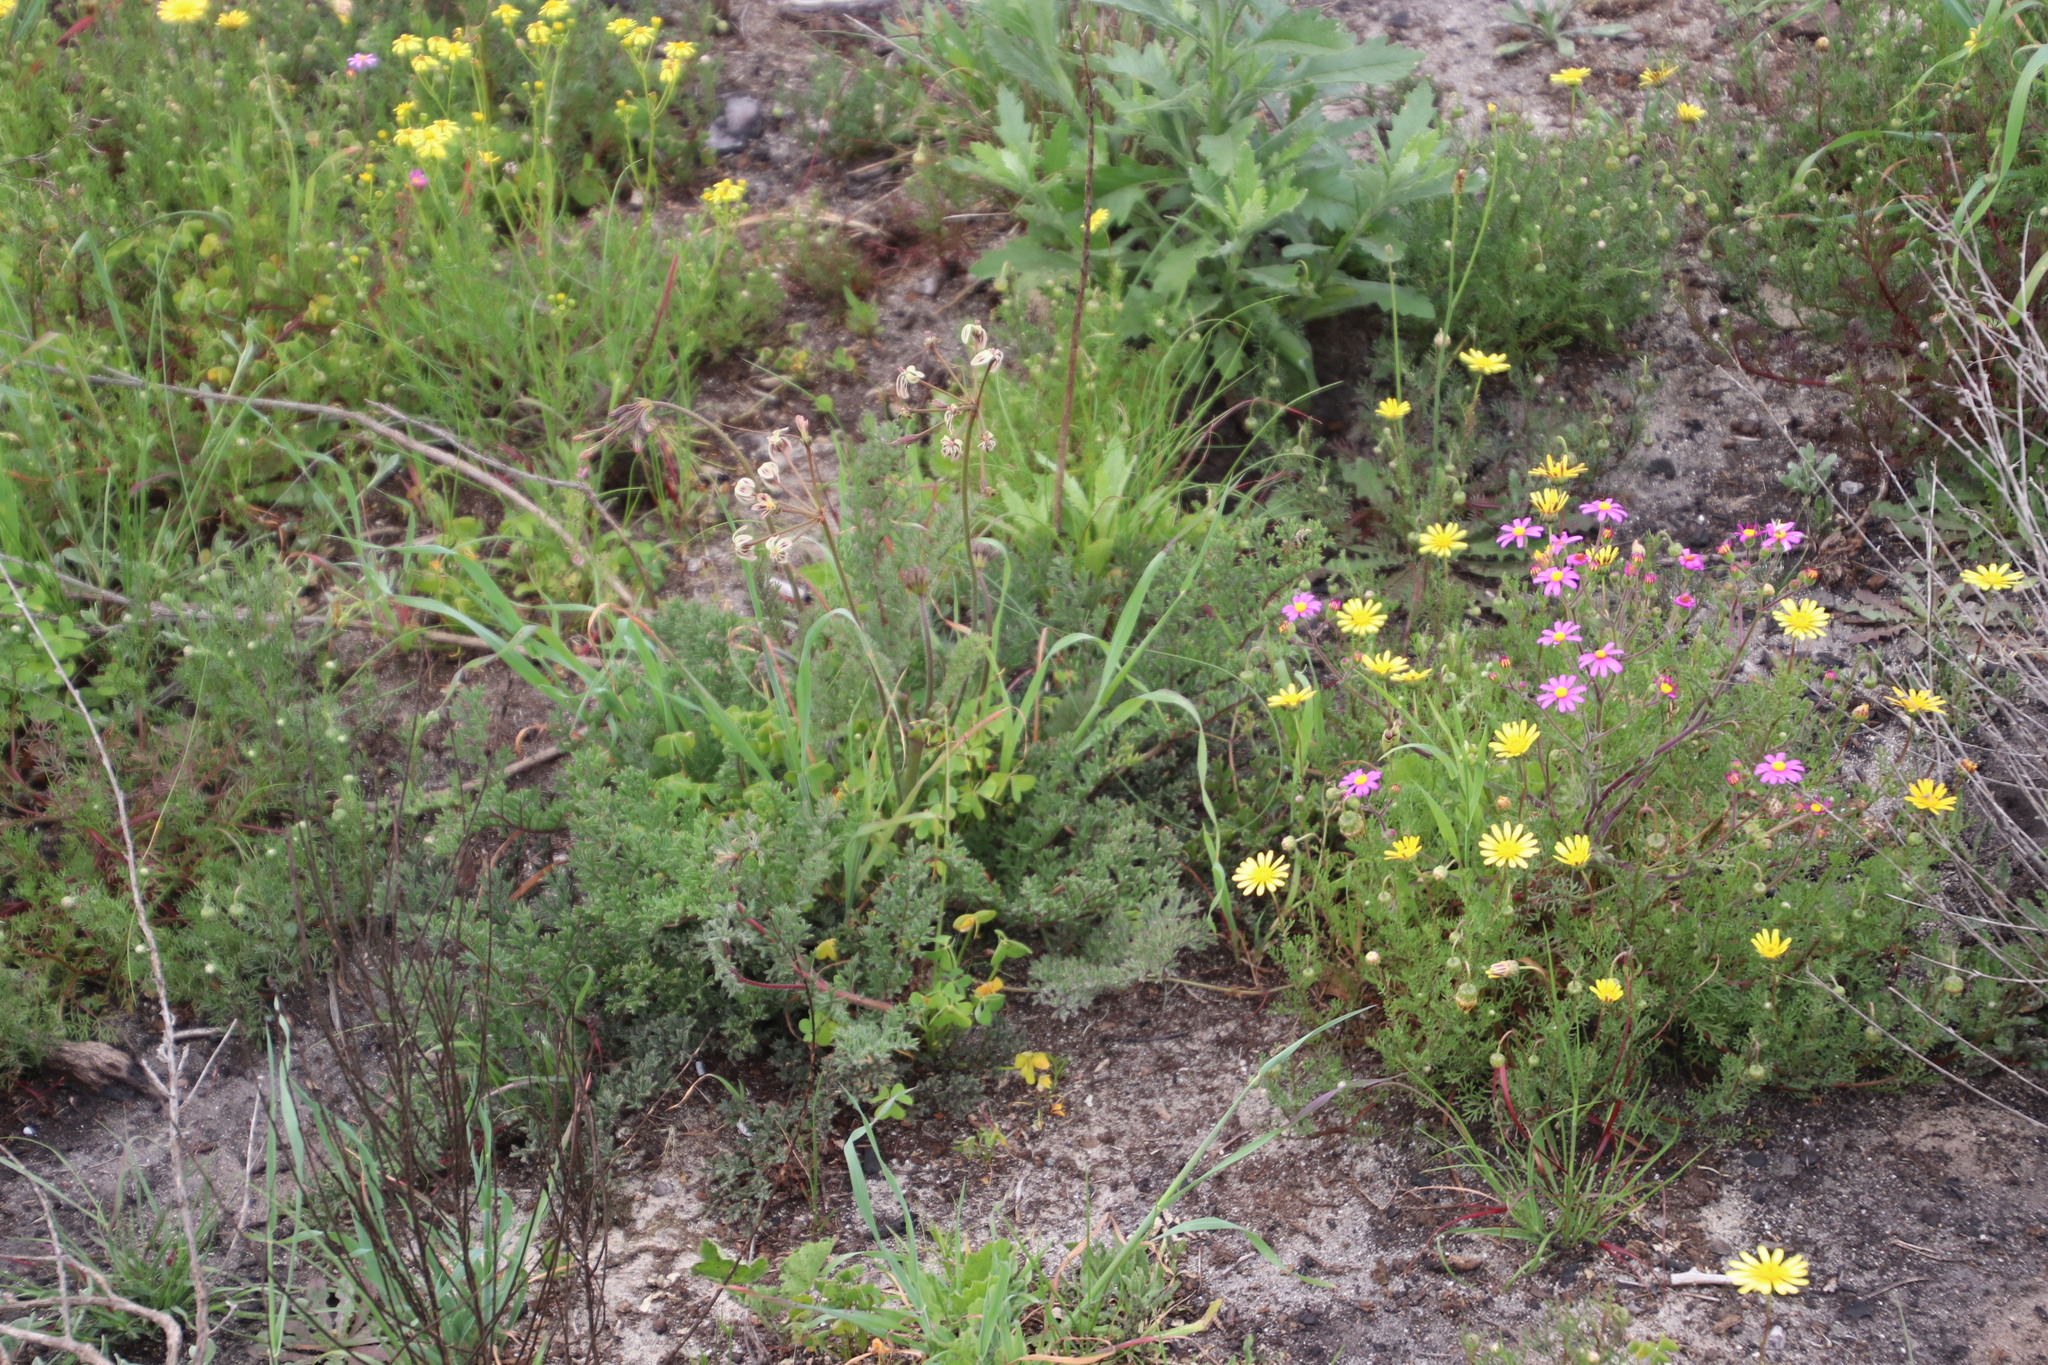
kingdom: Plantae
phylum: Tracheophyta
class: Magnoliopsida
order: Geraniales
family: Geraniaceae
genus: Pelargonium
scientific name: Pelargonium triste
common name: Night-scent pelargonium
